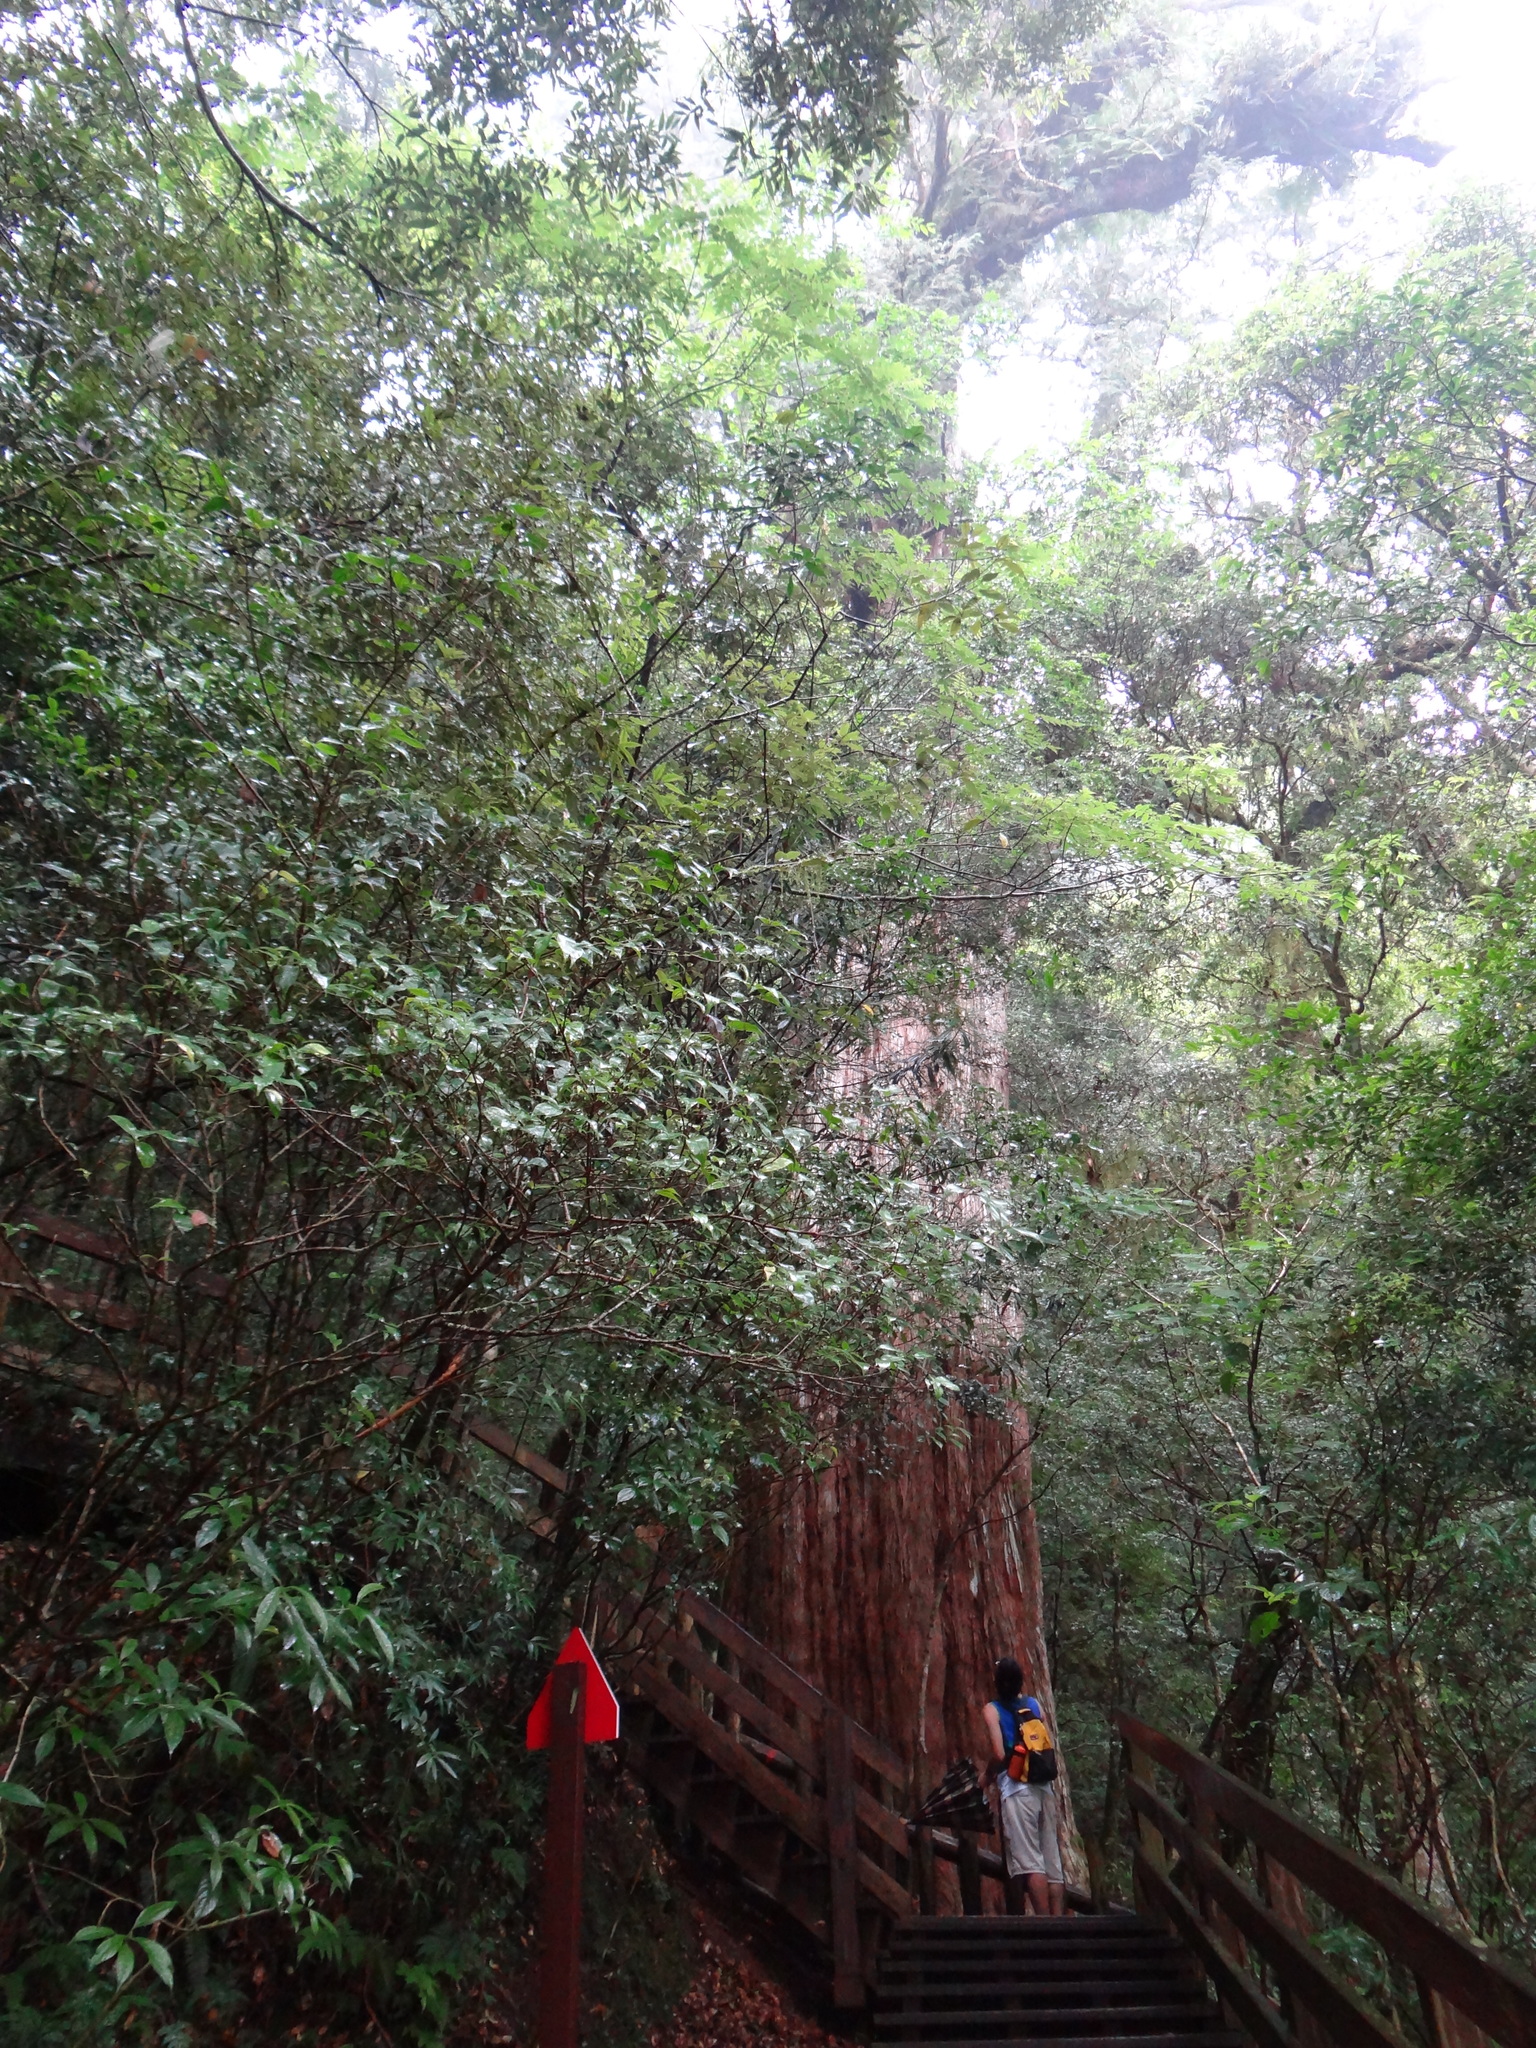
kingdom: Plantae
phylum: Tracheophyta
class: Pinopsida
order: Pinales
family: Cupressaceae
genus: Chamaecyparis
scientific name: Chamaecyparis formosensis
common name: Formosan cypress
